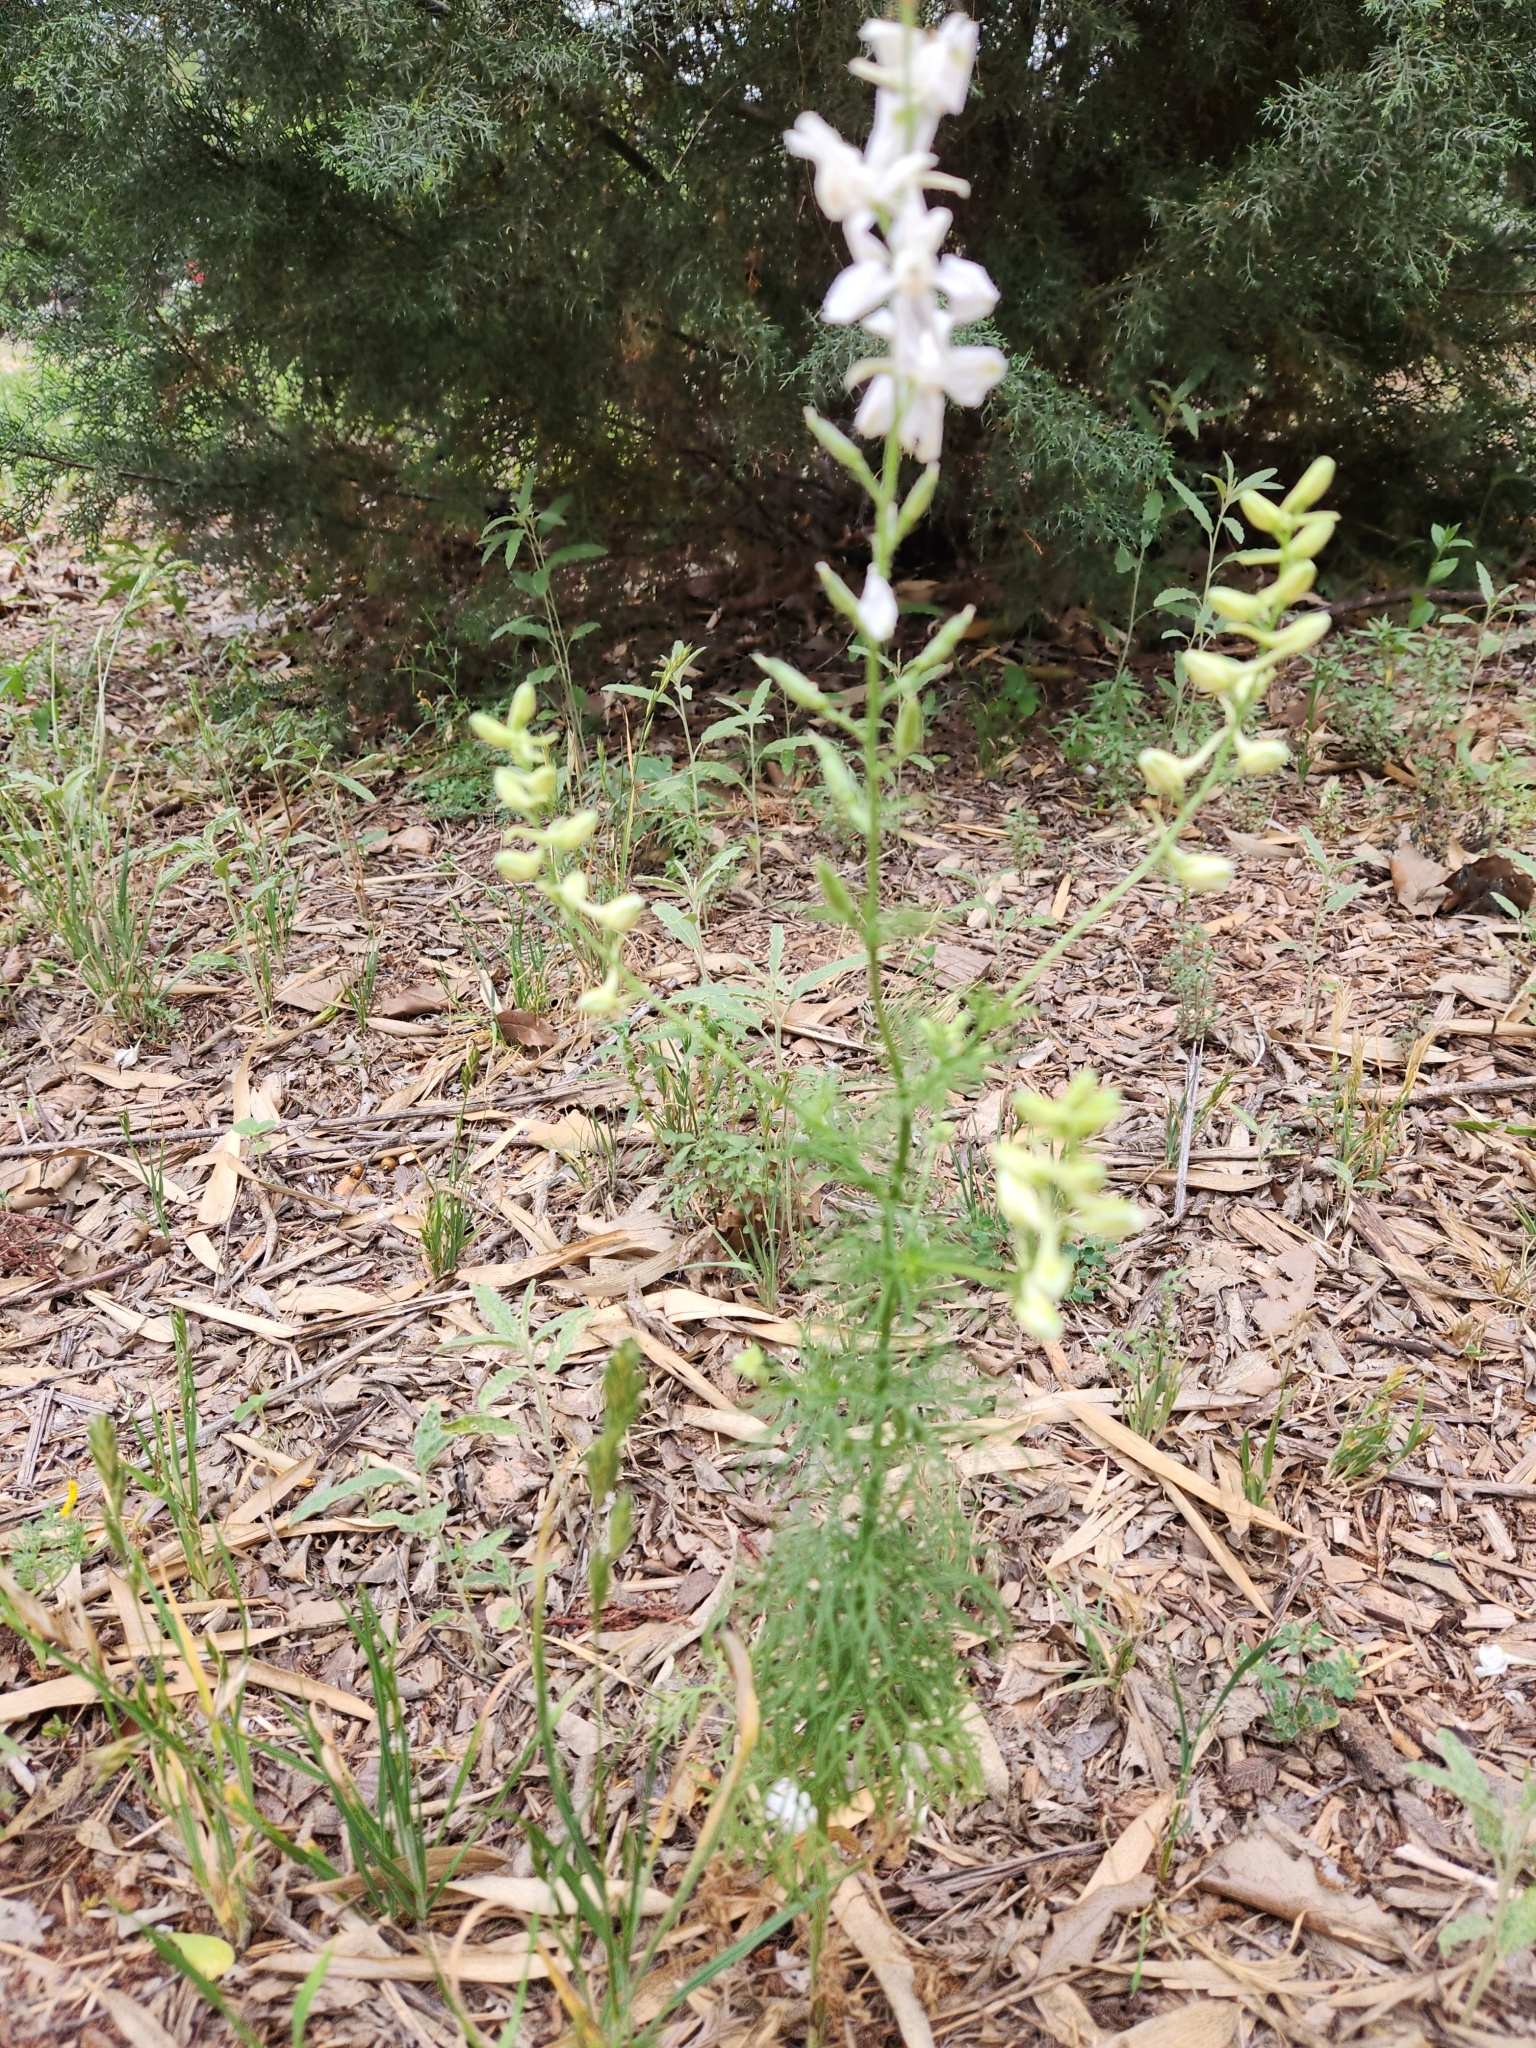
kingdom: Plantae
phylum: Tracheophyta
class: Magnoliopsida
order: Ranunculales
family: Ranunculaceae
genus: Delphinium
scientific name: Delphinium carolinianum
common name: Carolina larkspur
